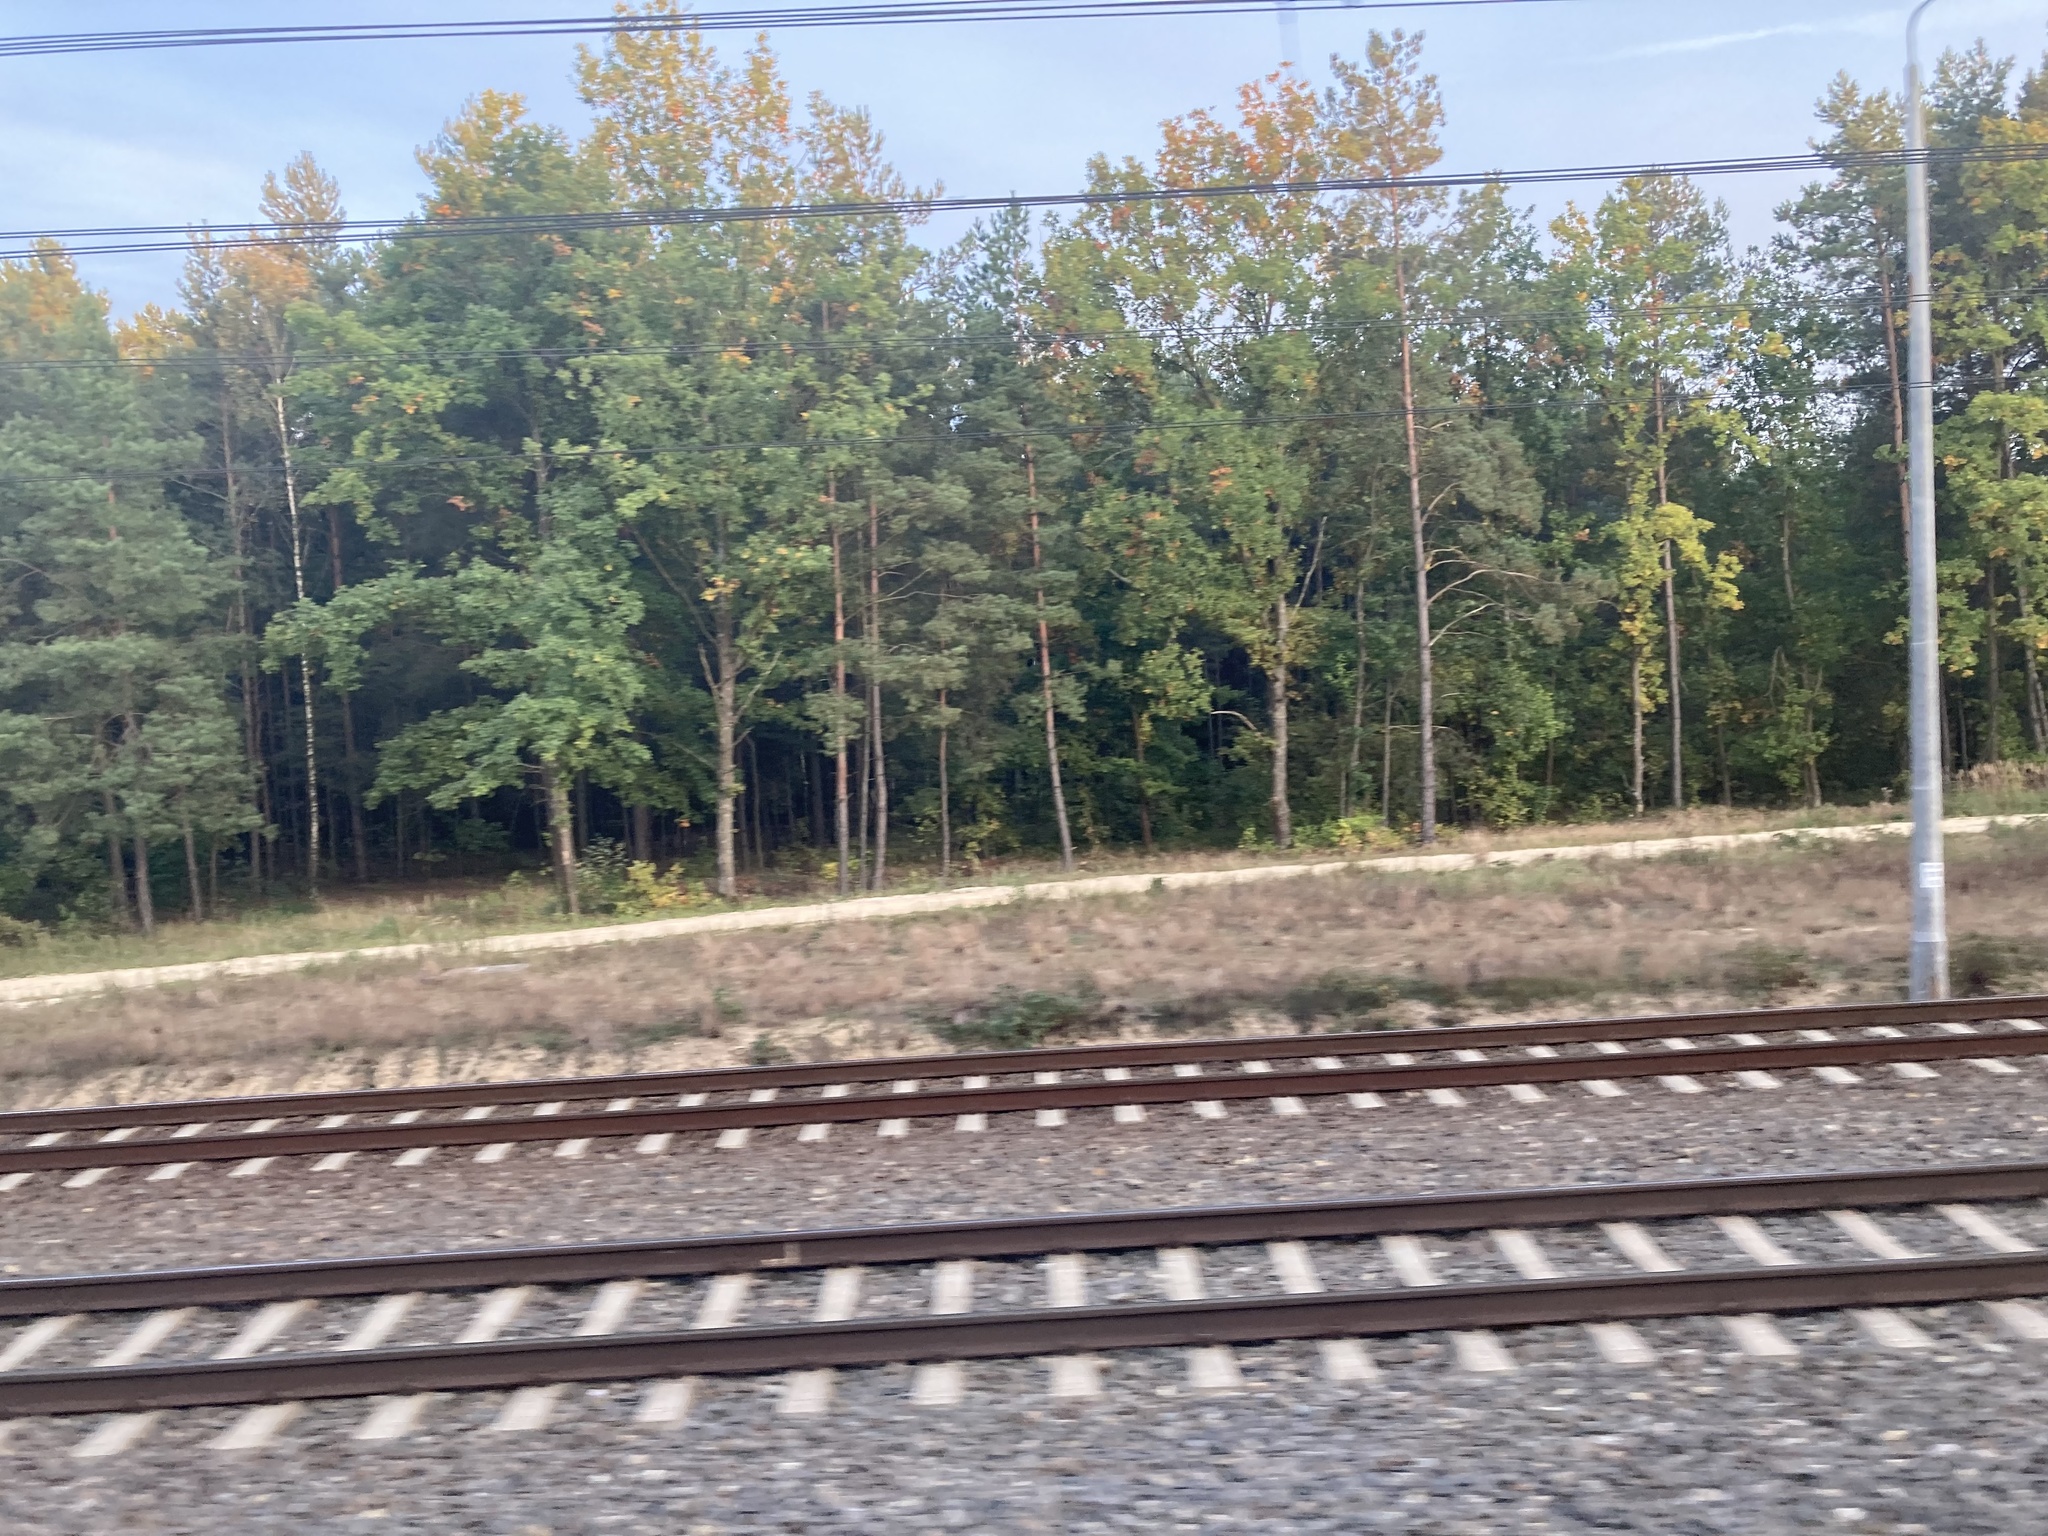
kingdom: Plantae
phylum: Tracheophyta
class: Pinopsida
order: Pinales
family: Pinaceae
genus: Pinus
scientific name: Pinus sylvestris
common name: Scots pine
